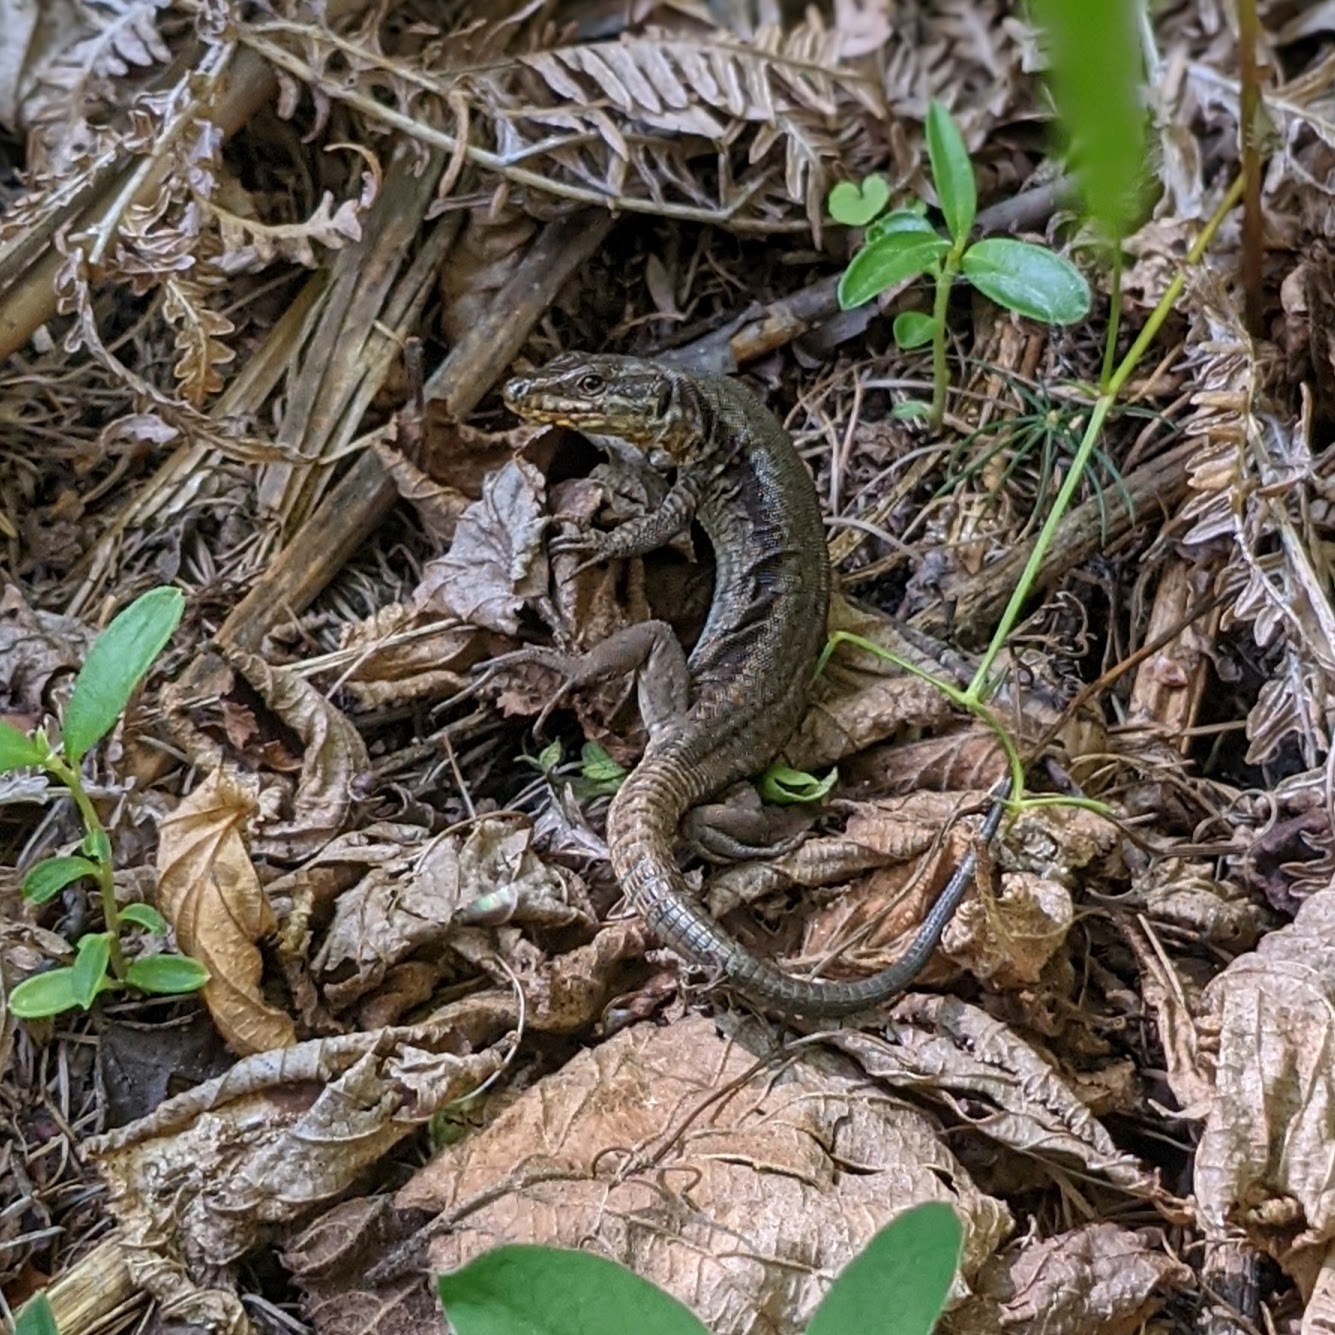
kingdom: Animalia
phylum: Chordata
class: Squamata
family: Lacertidae
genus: Podarcis
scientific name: Podarcis muralis
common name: Common wall lizard
